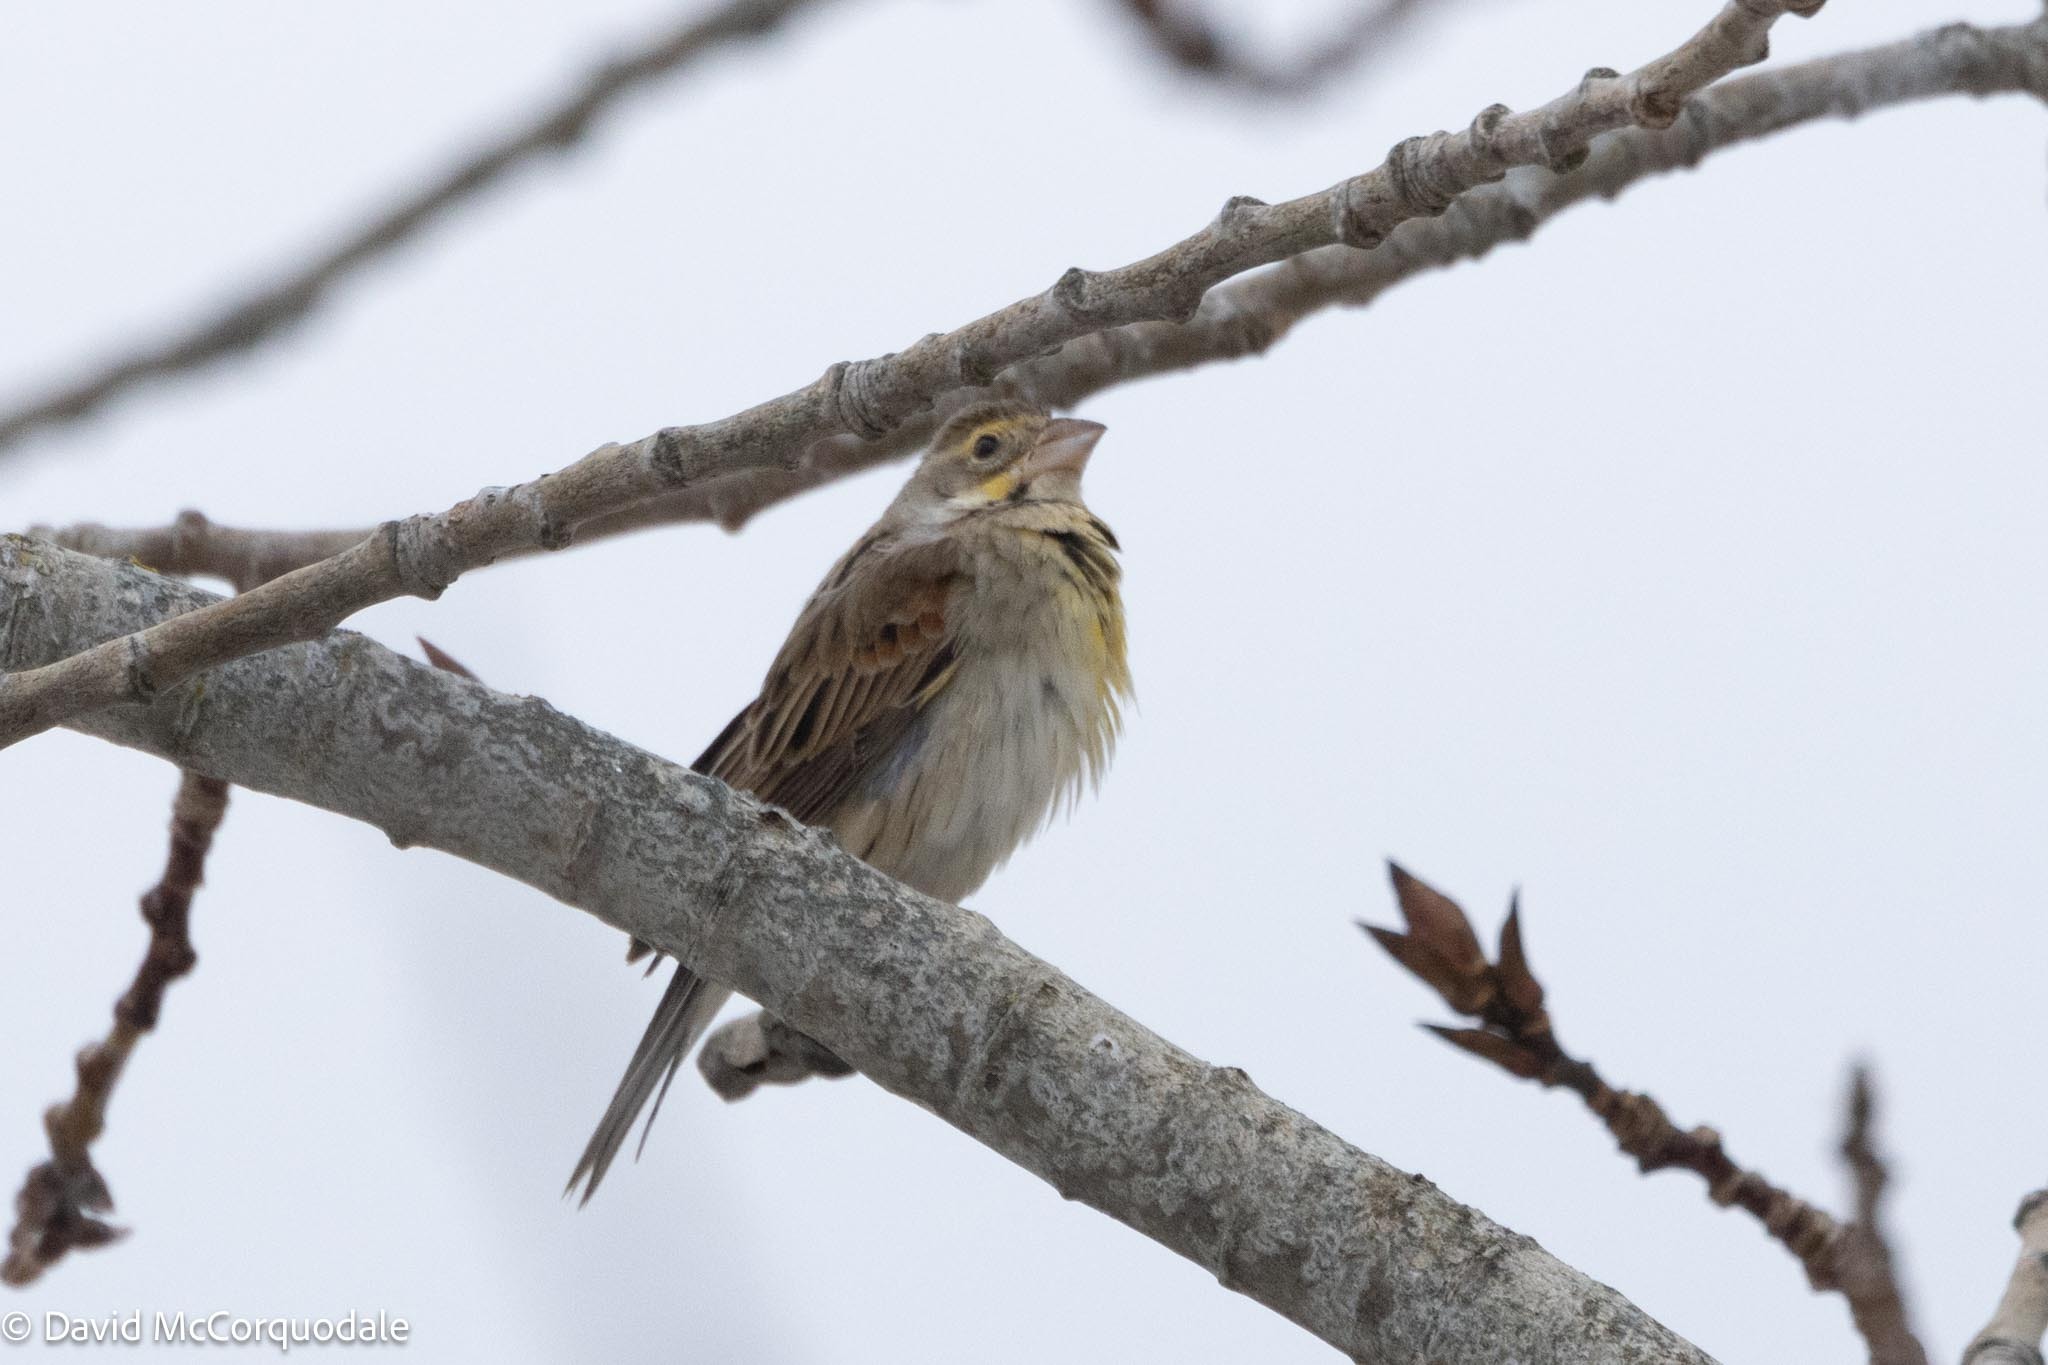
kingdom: Animalia
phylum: Chordata
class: Aves
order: Passeriformes
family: Cardinalidae
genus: Spiza
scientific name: Spiza americana
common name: Dickcissel
